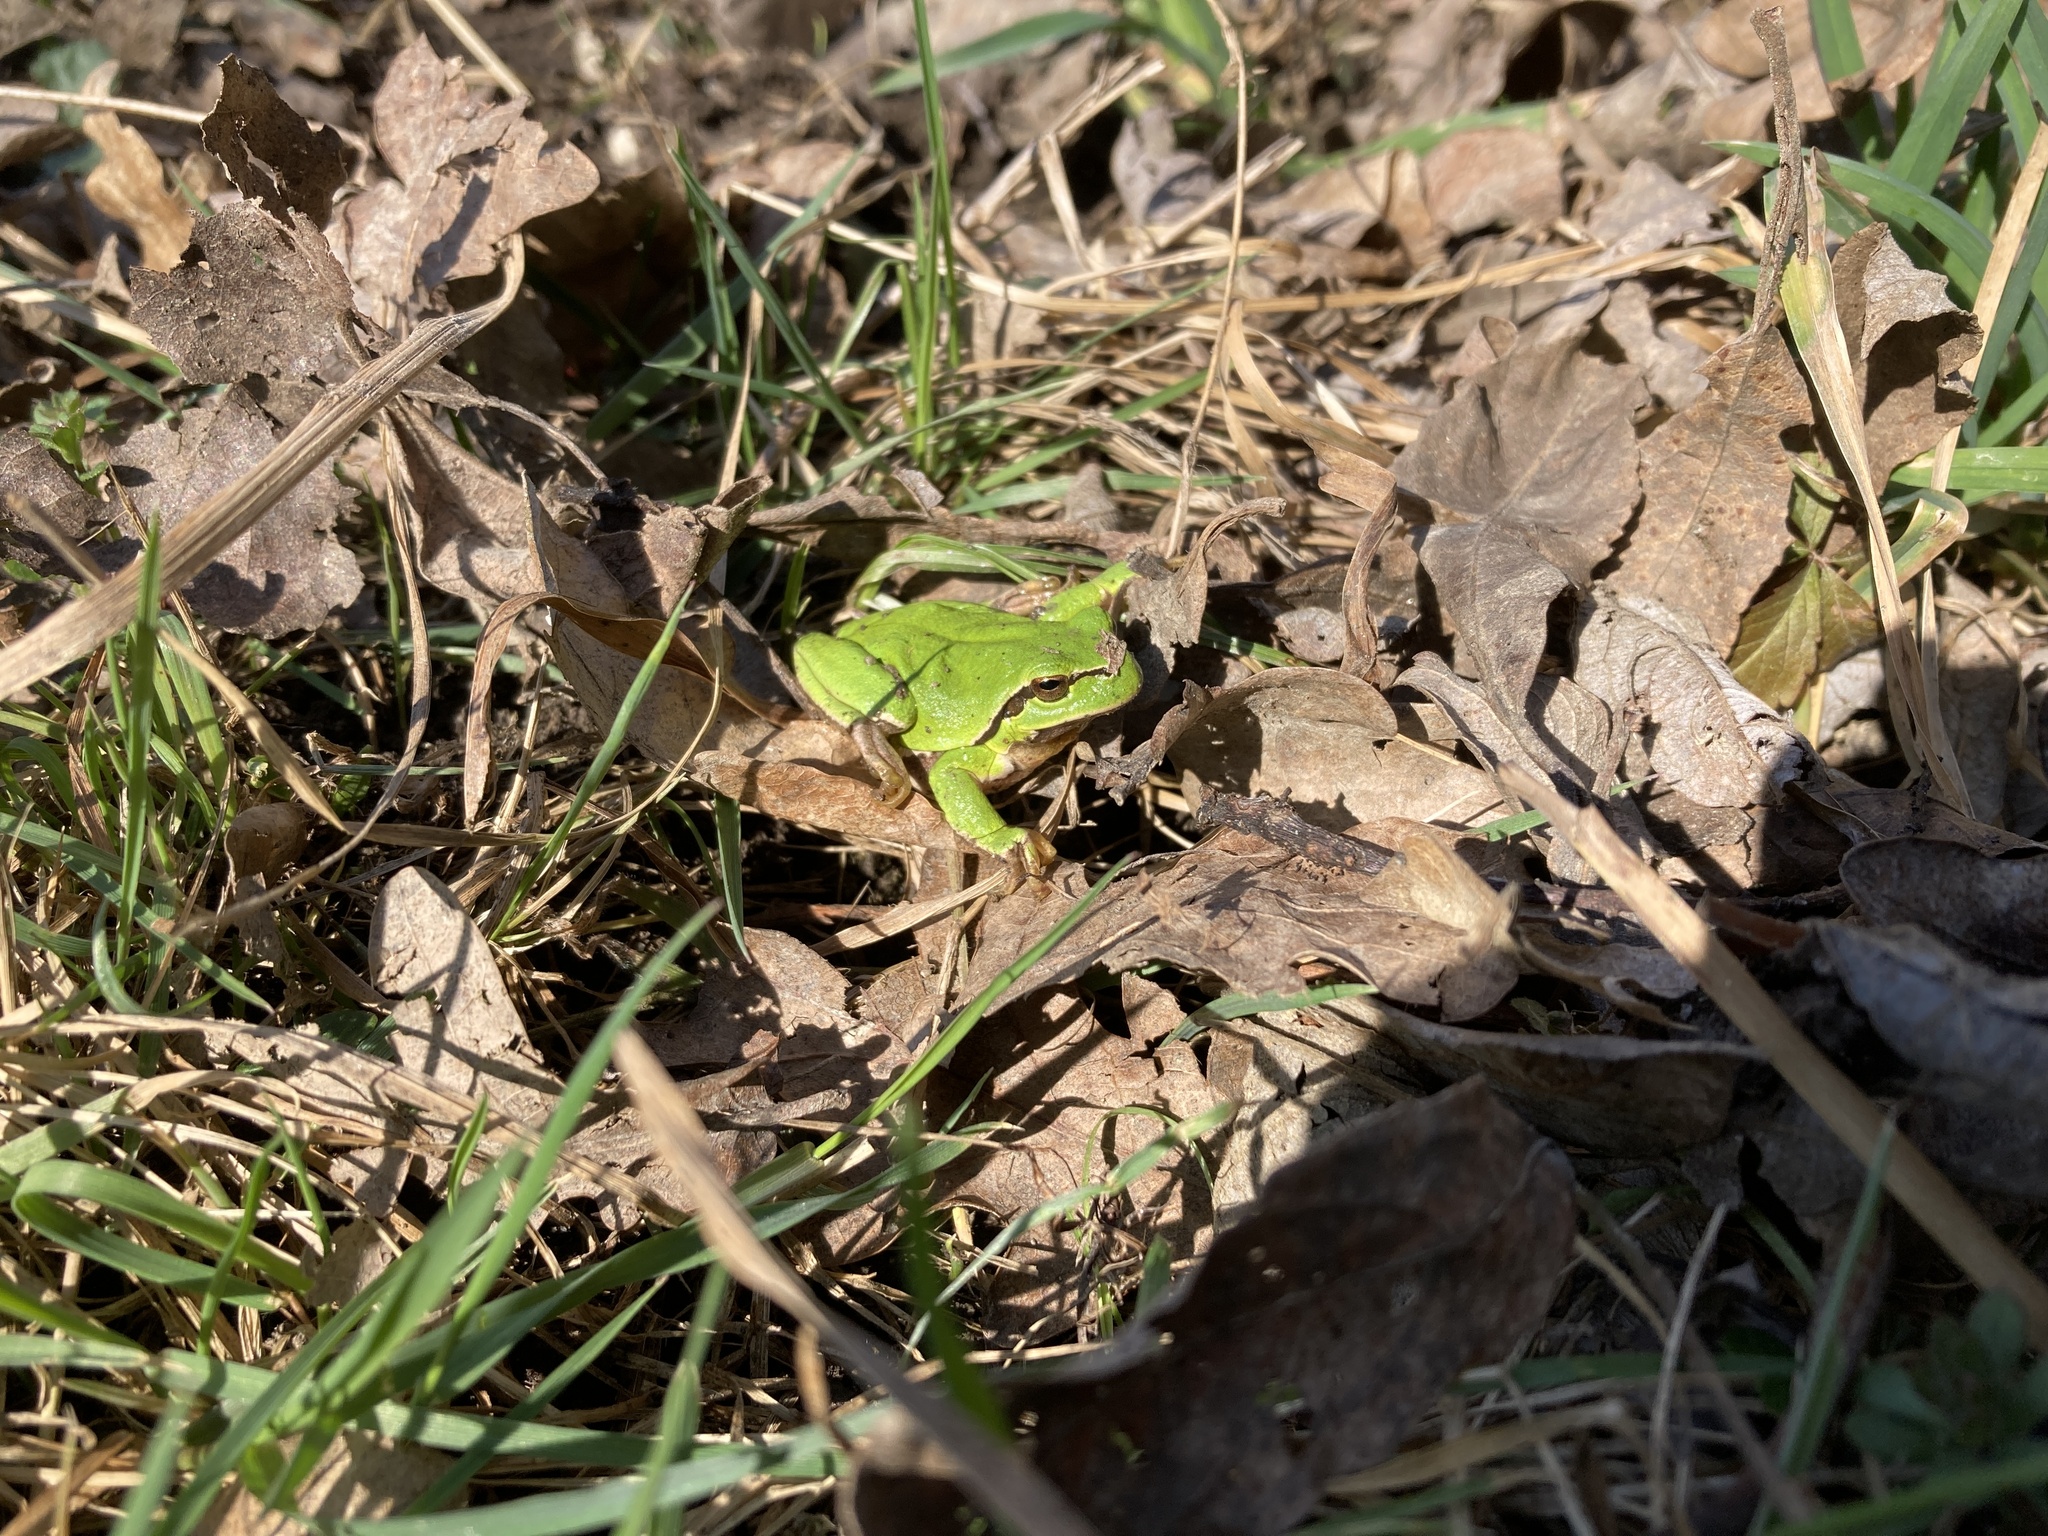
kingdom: Animalia
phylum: Chordata
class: Amphibia
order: Anura
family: Hylidae
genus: Hyla
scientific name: Hyla arborea
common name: Common tree frog
